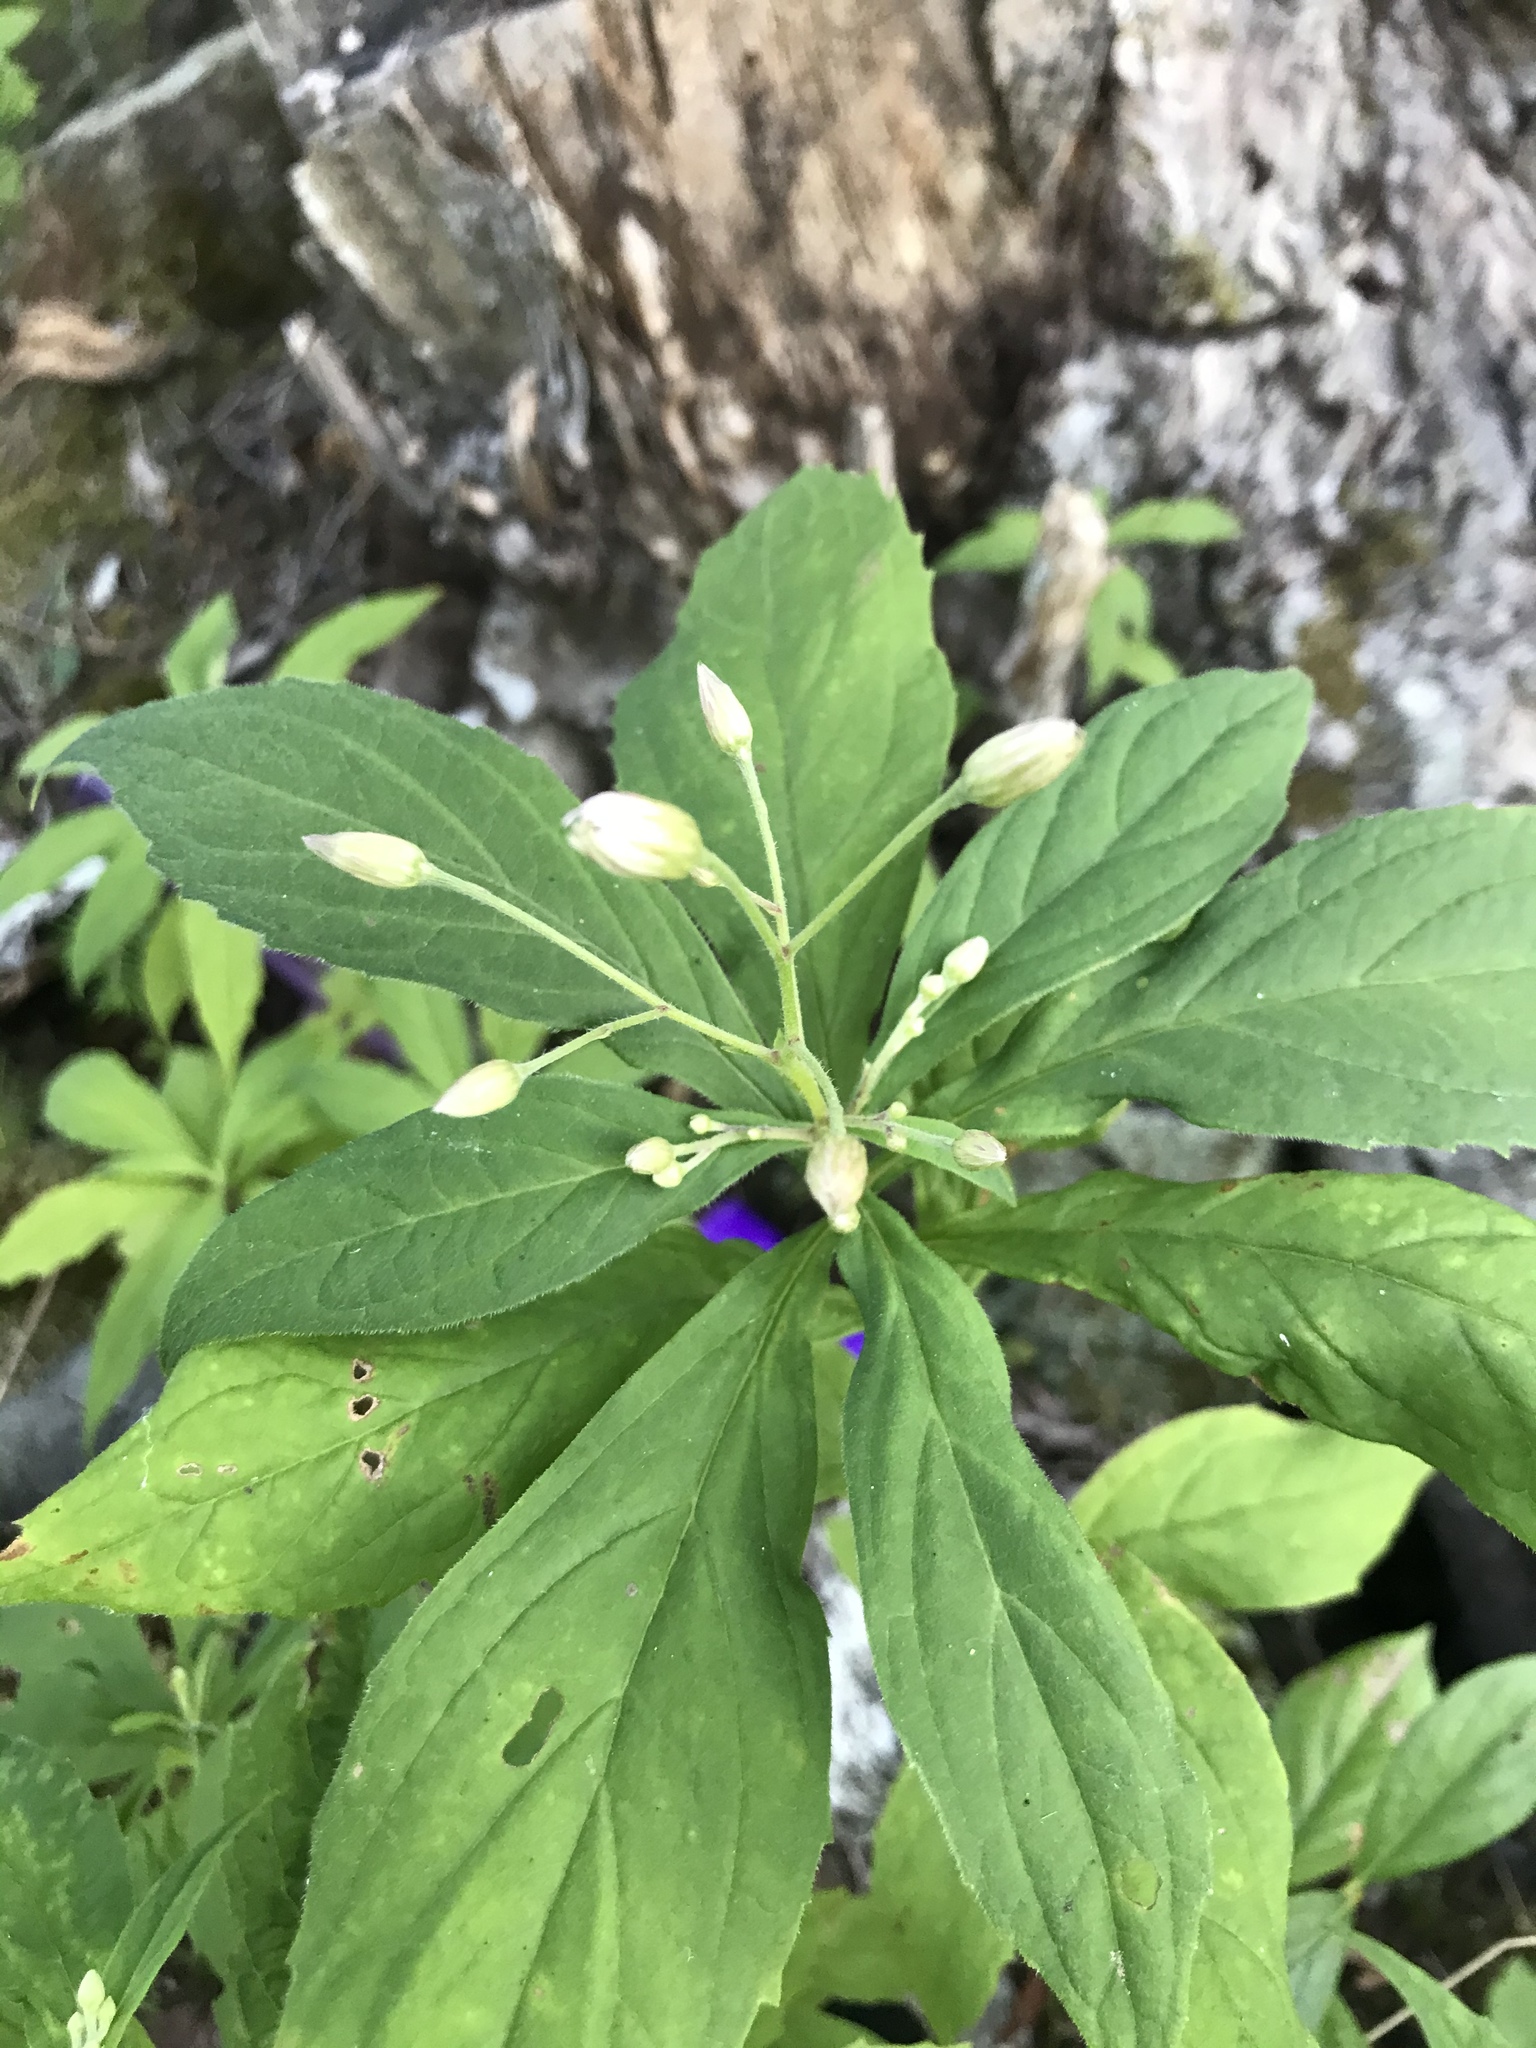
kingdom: Plantae
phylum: Tracheophyta
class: Magnoliopsida
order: Asterales
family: Asteraceae
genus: Oclemena
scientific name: Oclemena acuminata
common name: Mountain aster
